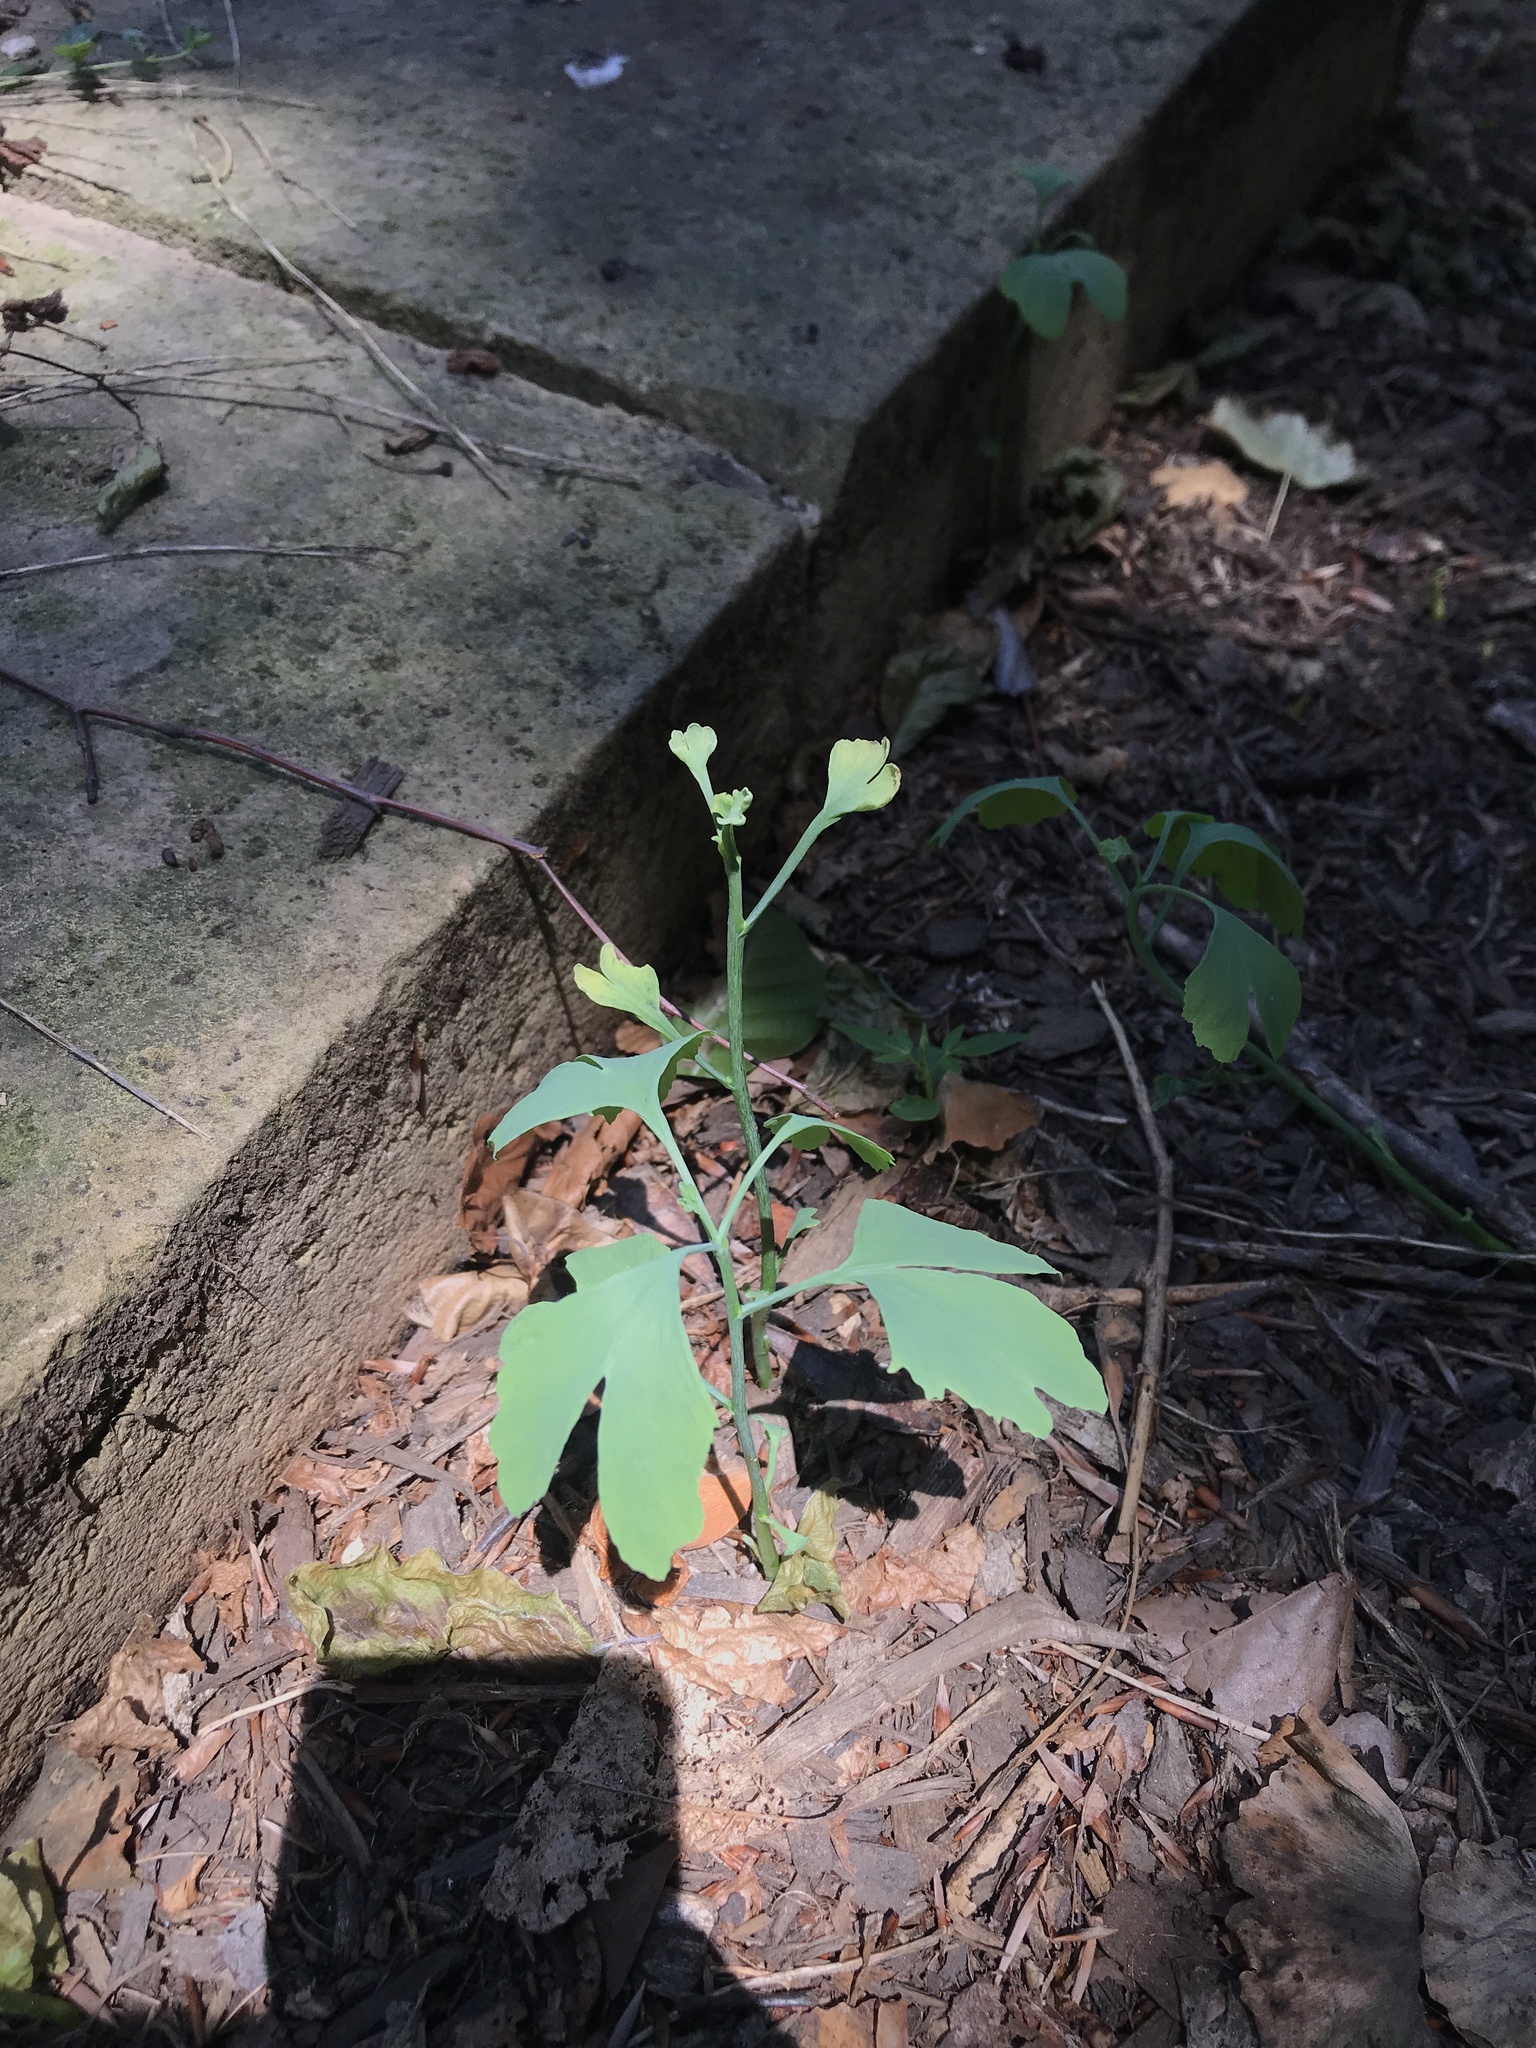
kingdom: Plantae
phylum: Tracheophyta
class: Ginkgoopsida
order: Ginkgoales
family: Ginkgoaceae
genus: Ginkgo
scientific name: Ginkgo biloba
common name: Ginkgo
